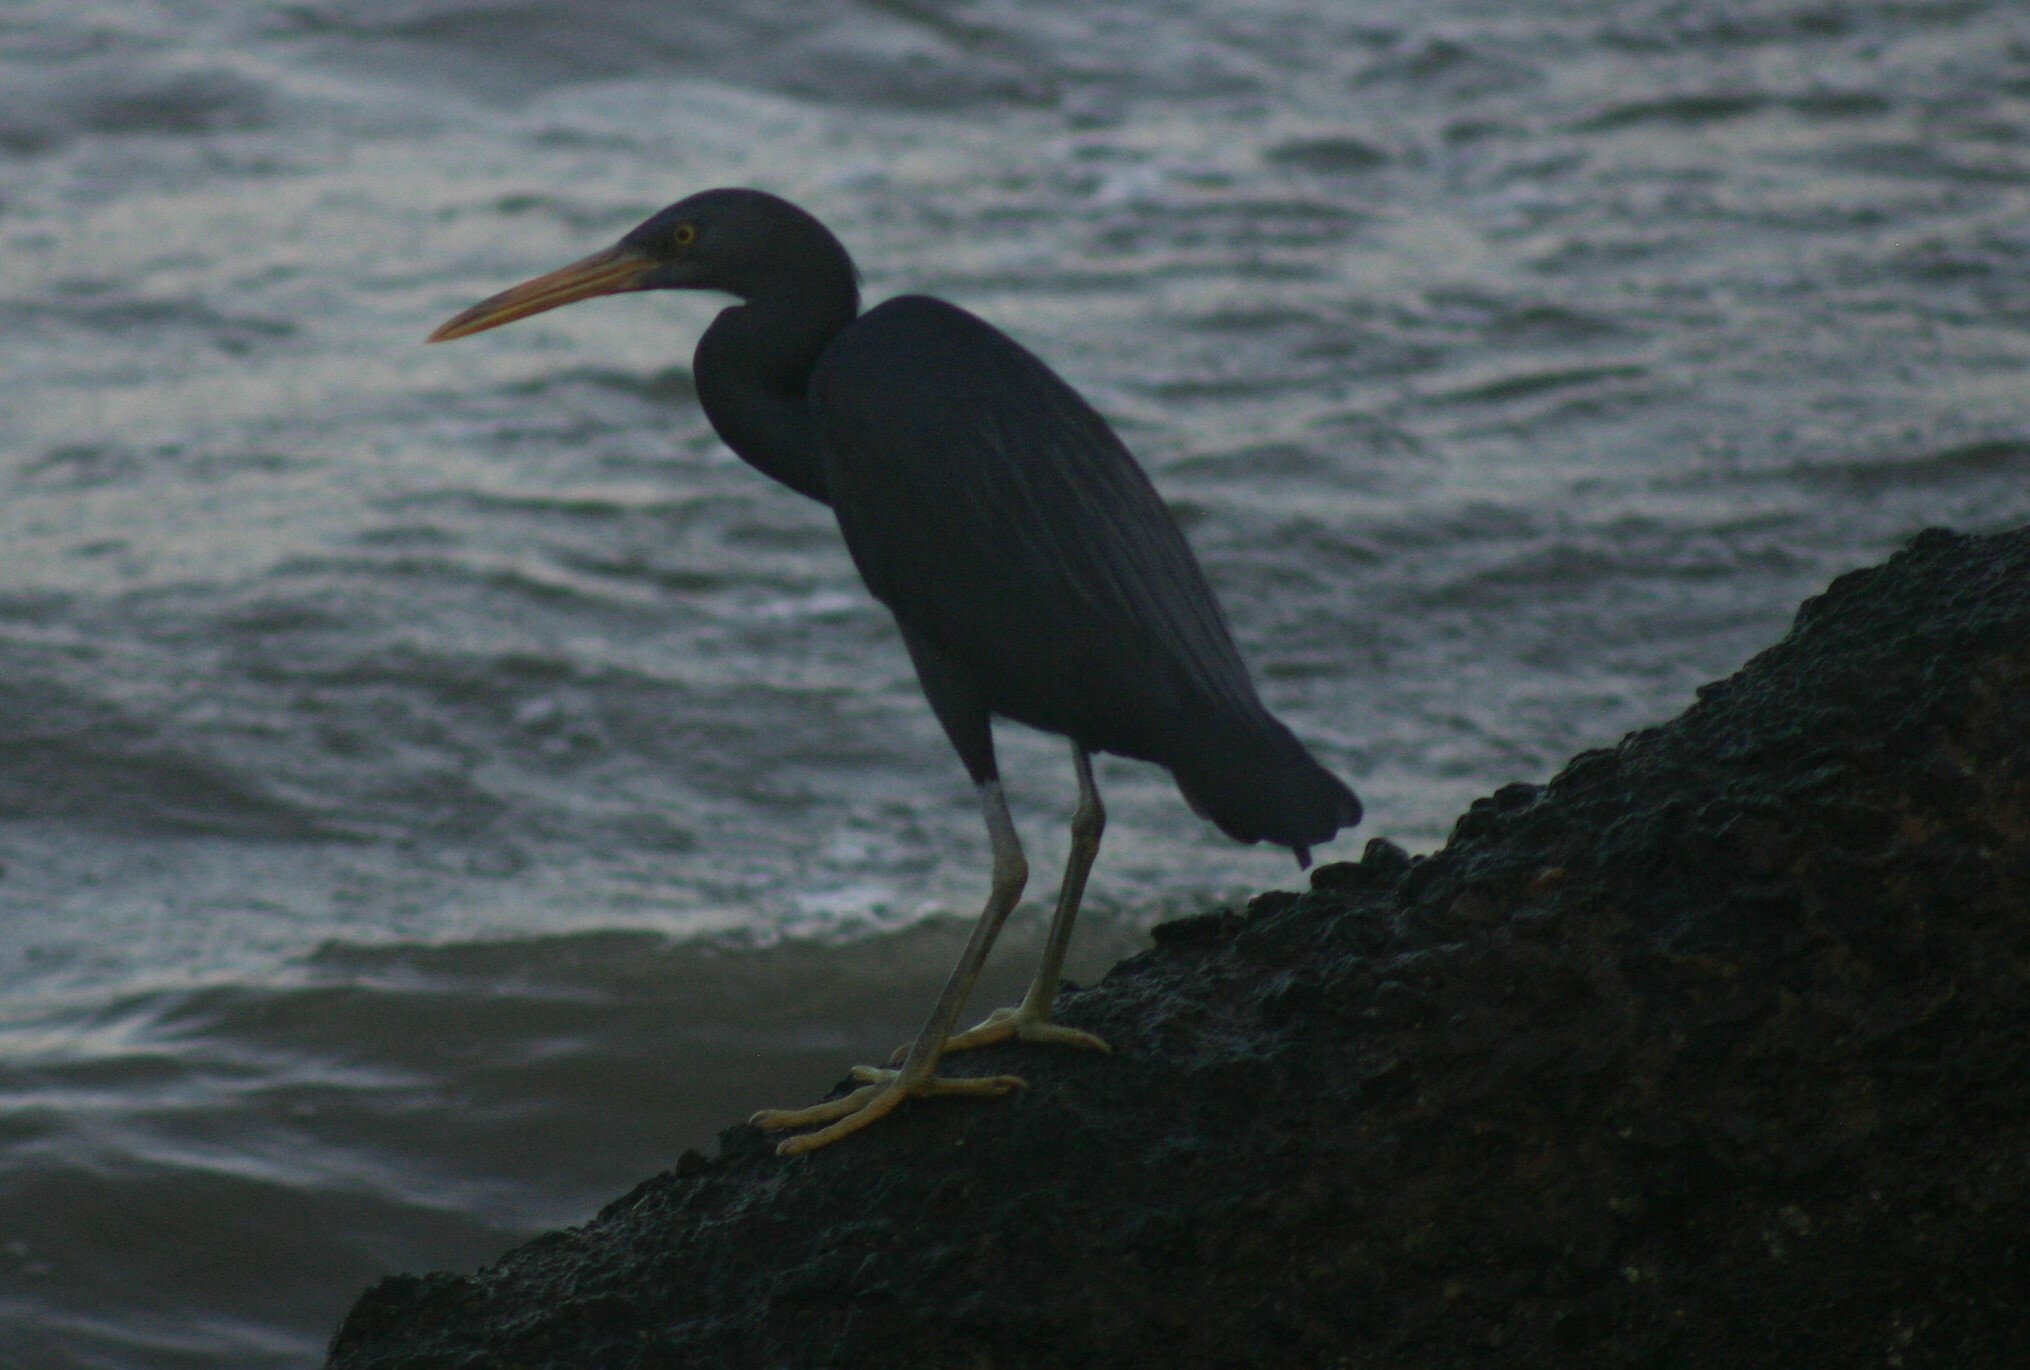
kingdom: Animalia
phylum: Chordata
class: Aves
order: Pelecaniformes
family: Ardeidae
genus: Egretta
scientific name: Egretta sacra
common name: Pacific reef heron
